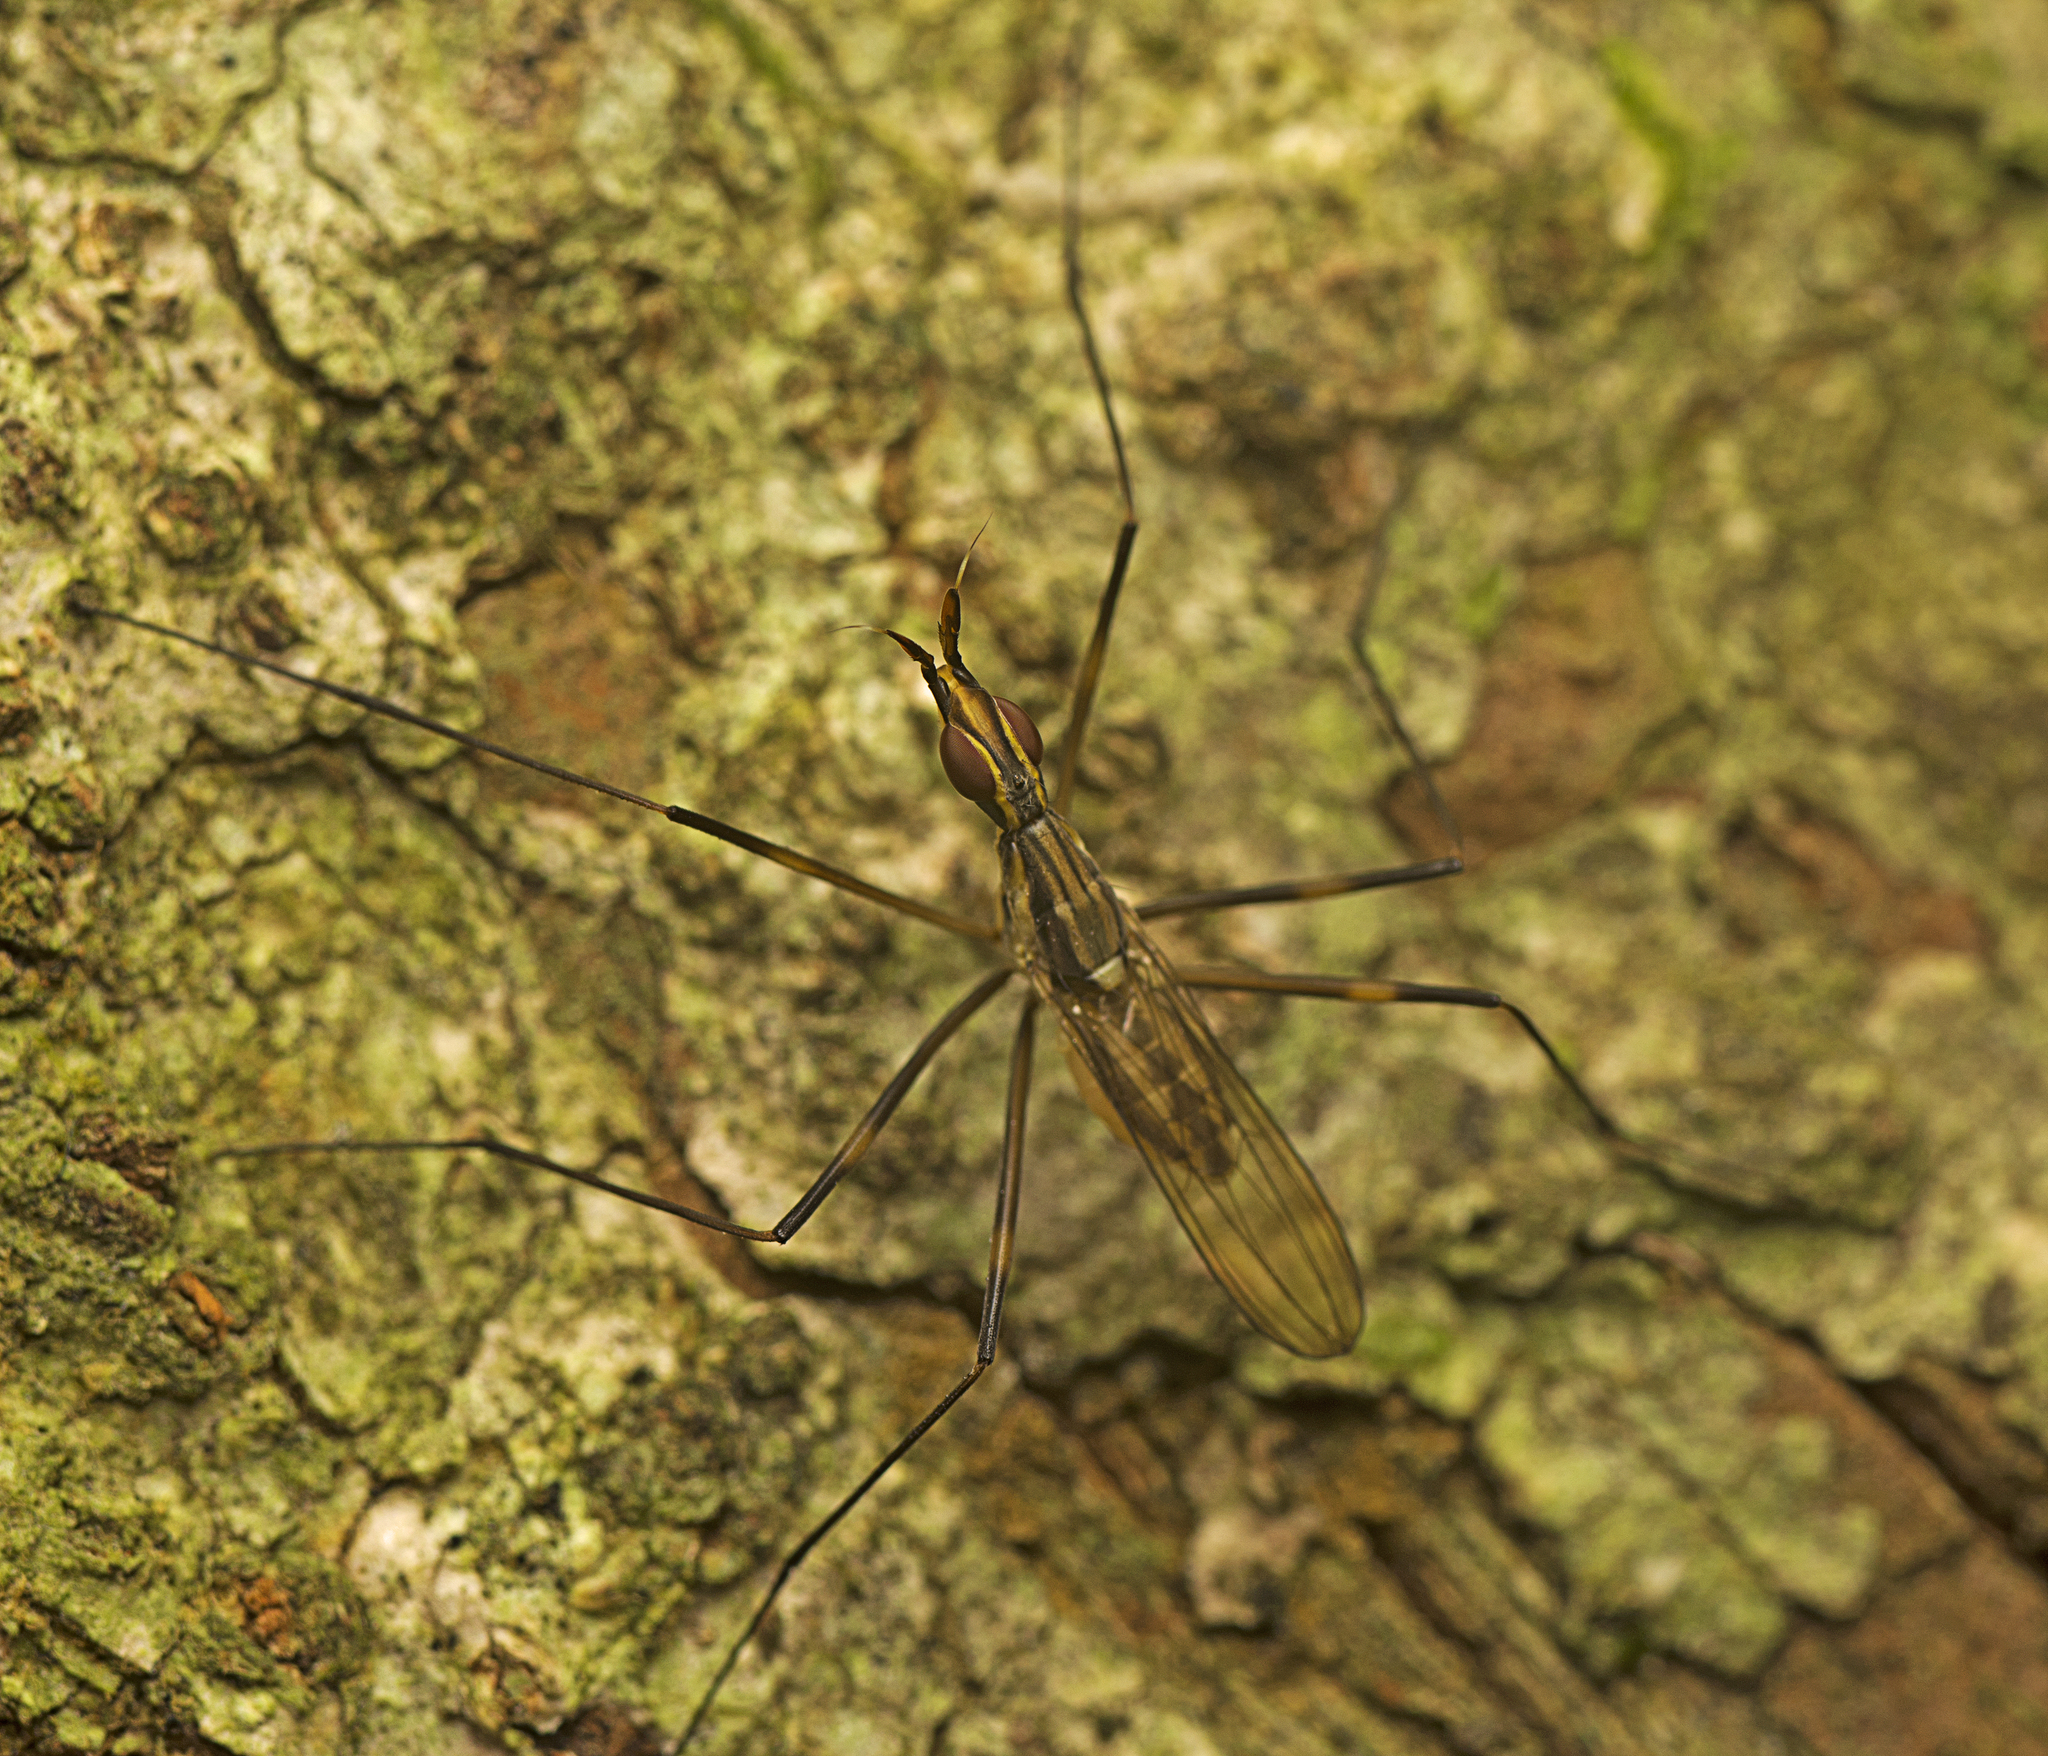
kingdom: Animalia
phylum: Arthropoda
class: Insecta
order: Diptera
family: Neriidae
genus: Derocephalus
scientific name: Derocephalus angusticollis
